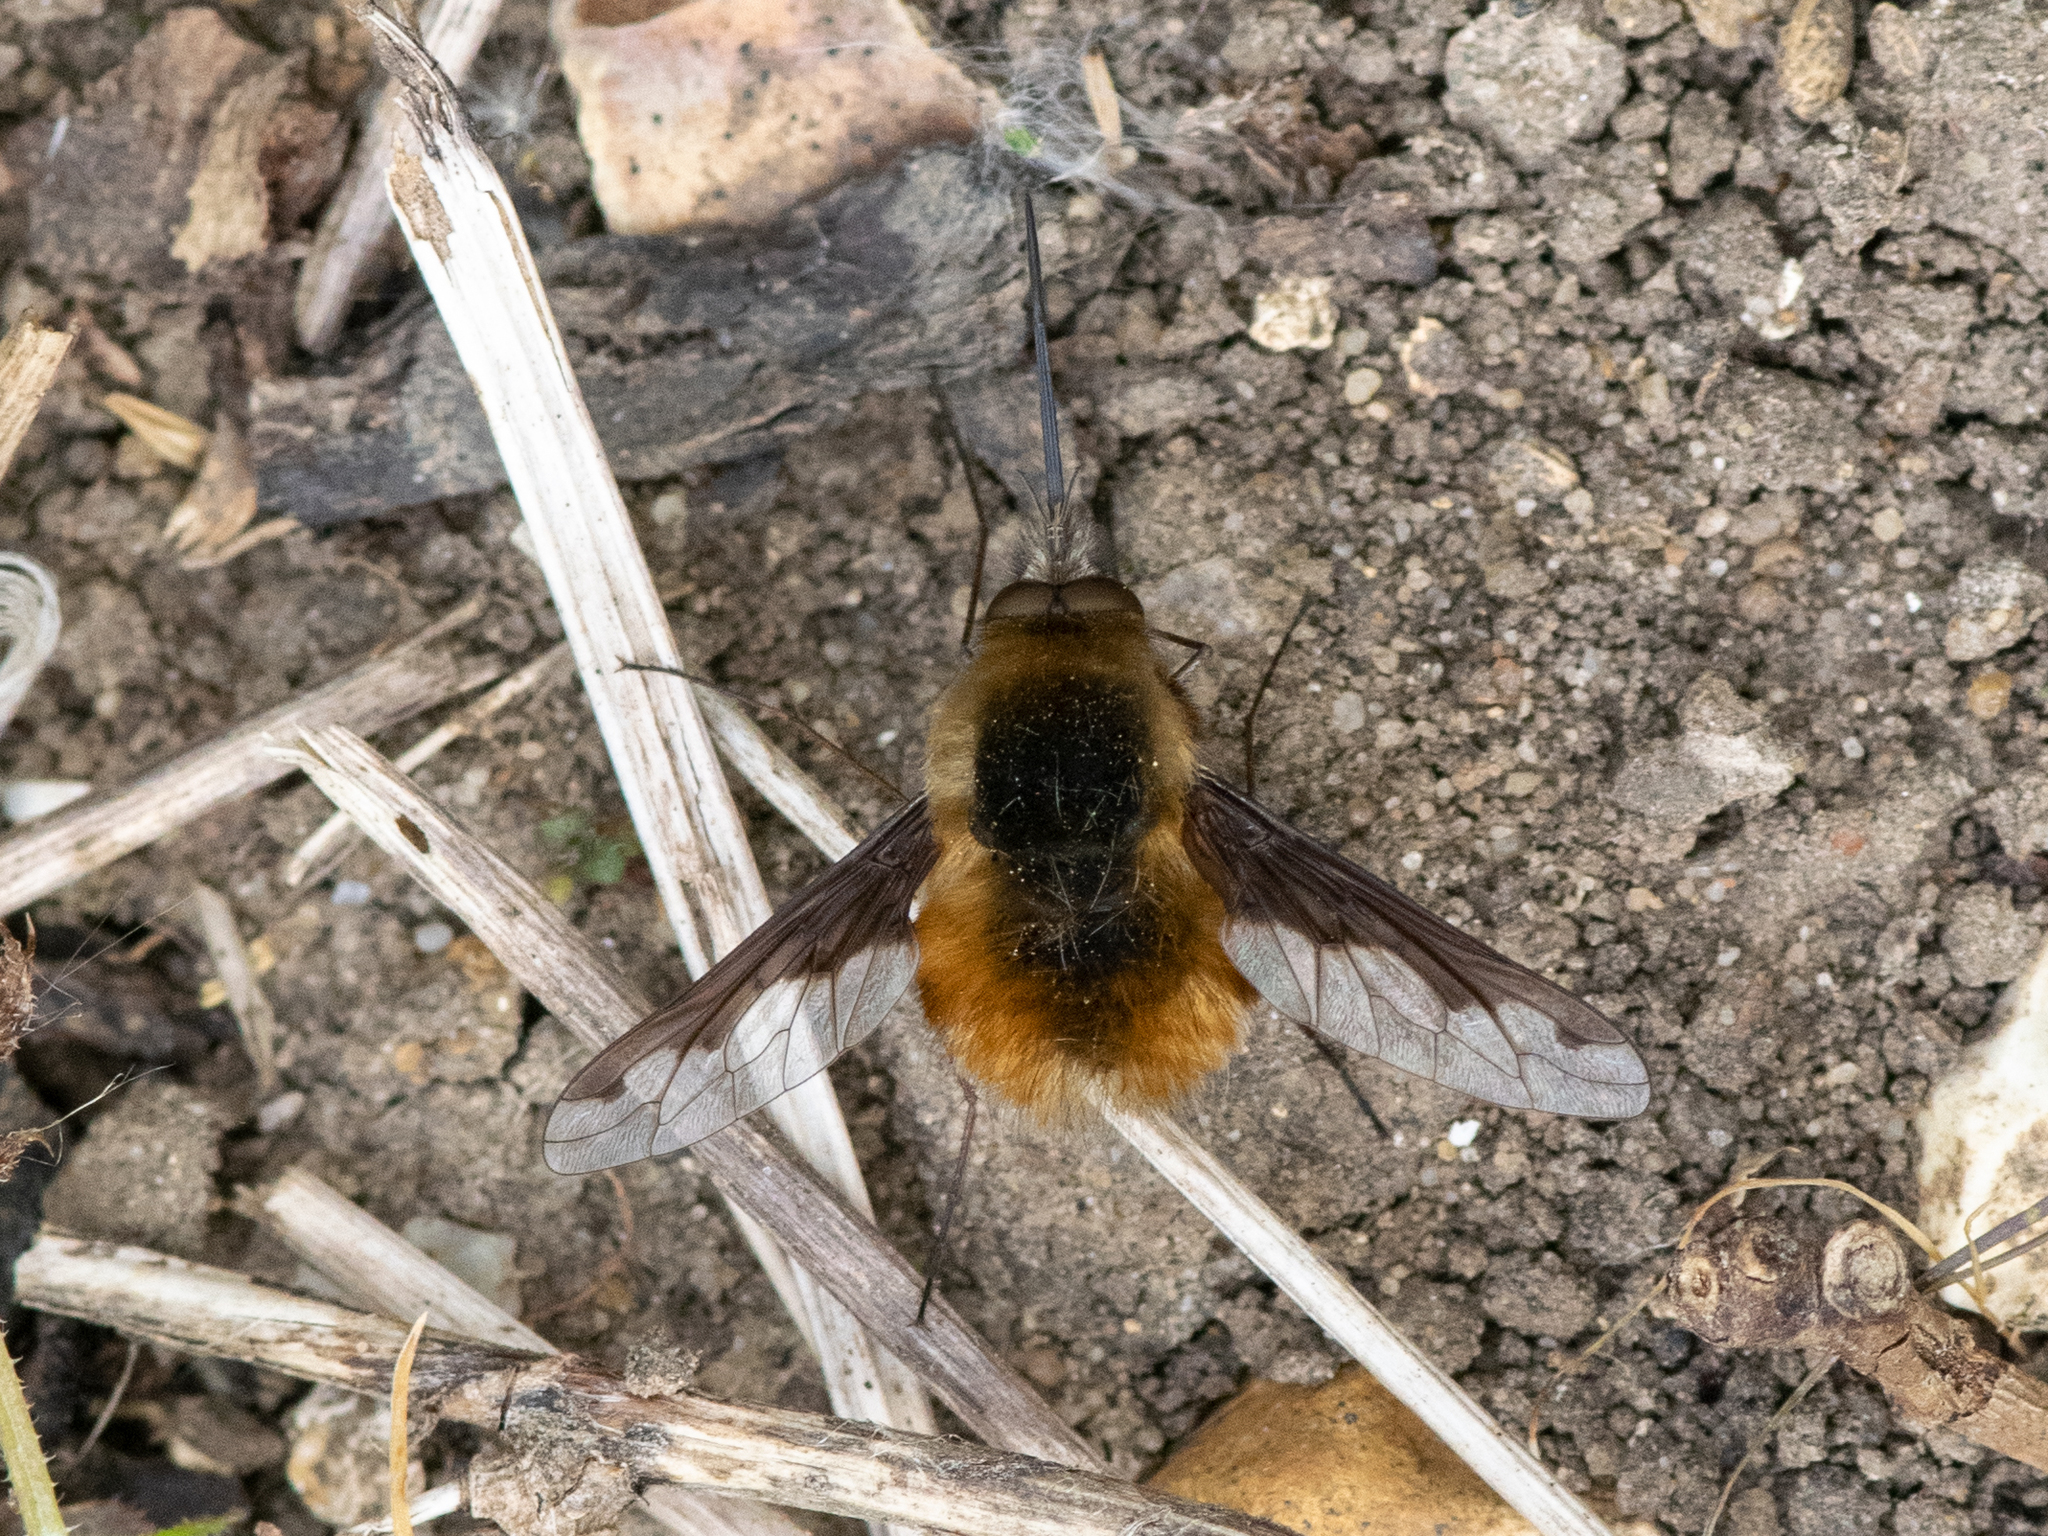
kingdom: Animalia
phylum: Arthropoda
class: Insecta
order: Diptera
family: Bombyliidae
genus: Bombylius
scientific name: Bombylius major
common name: Bee fly
